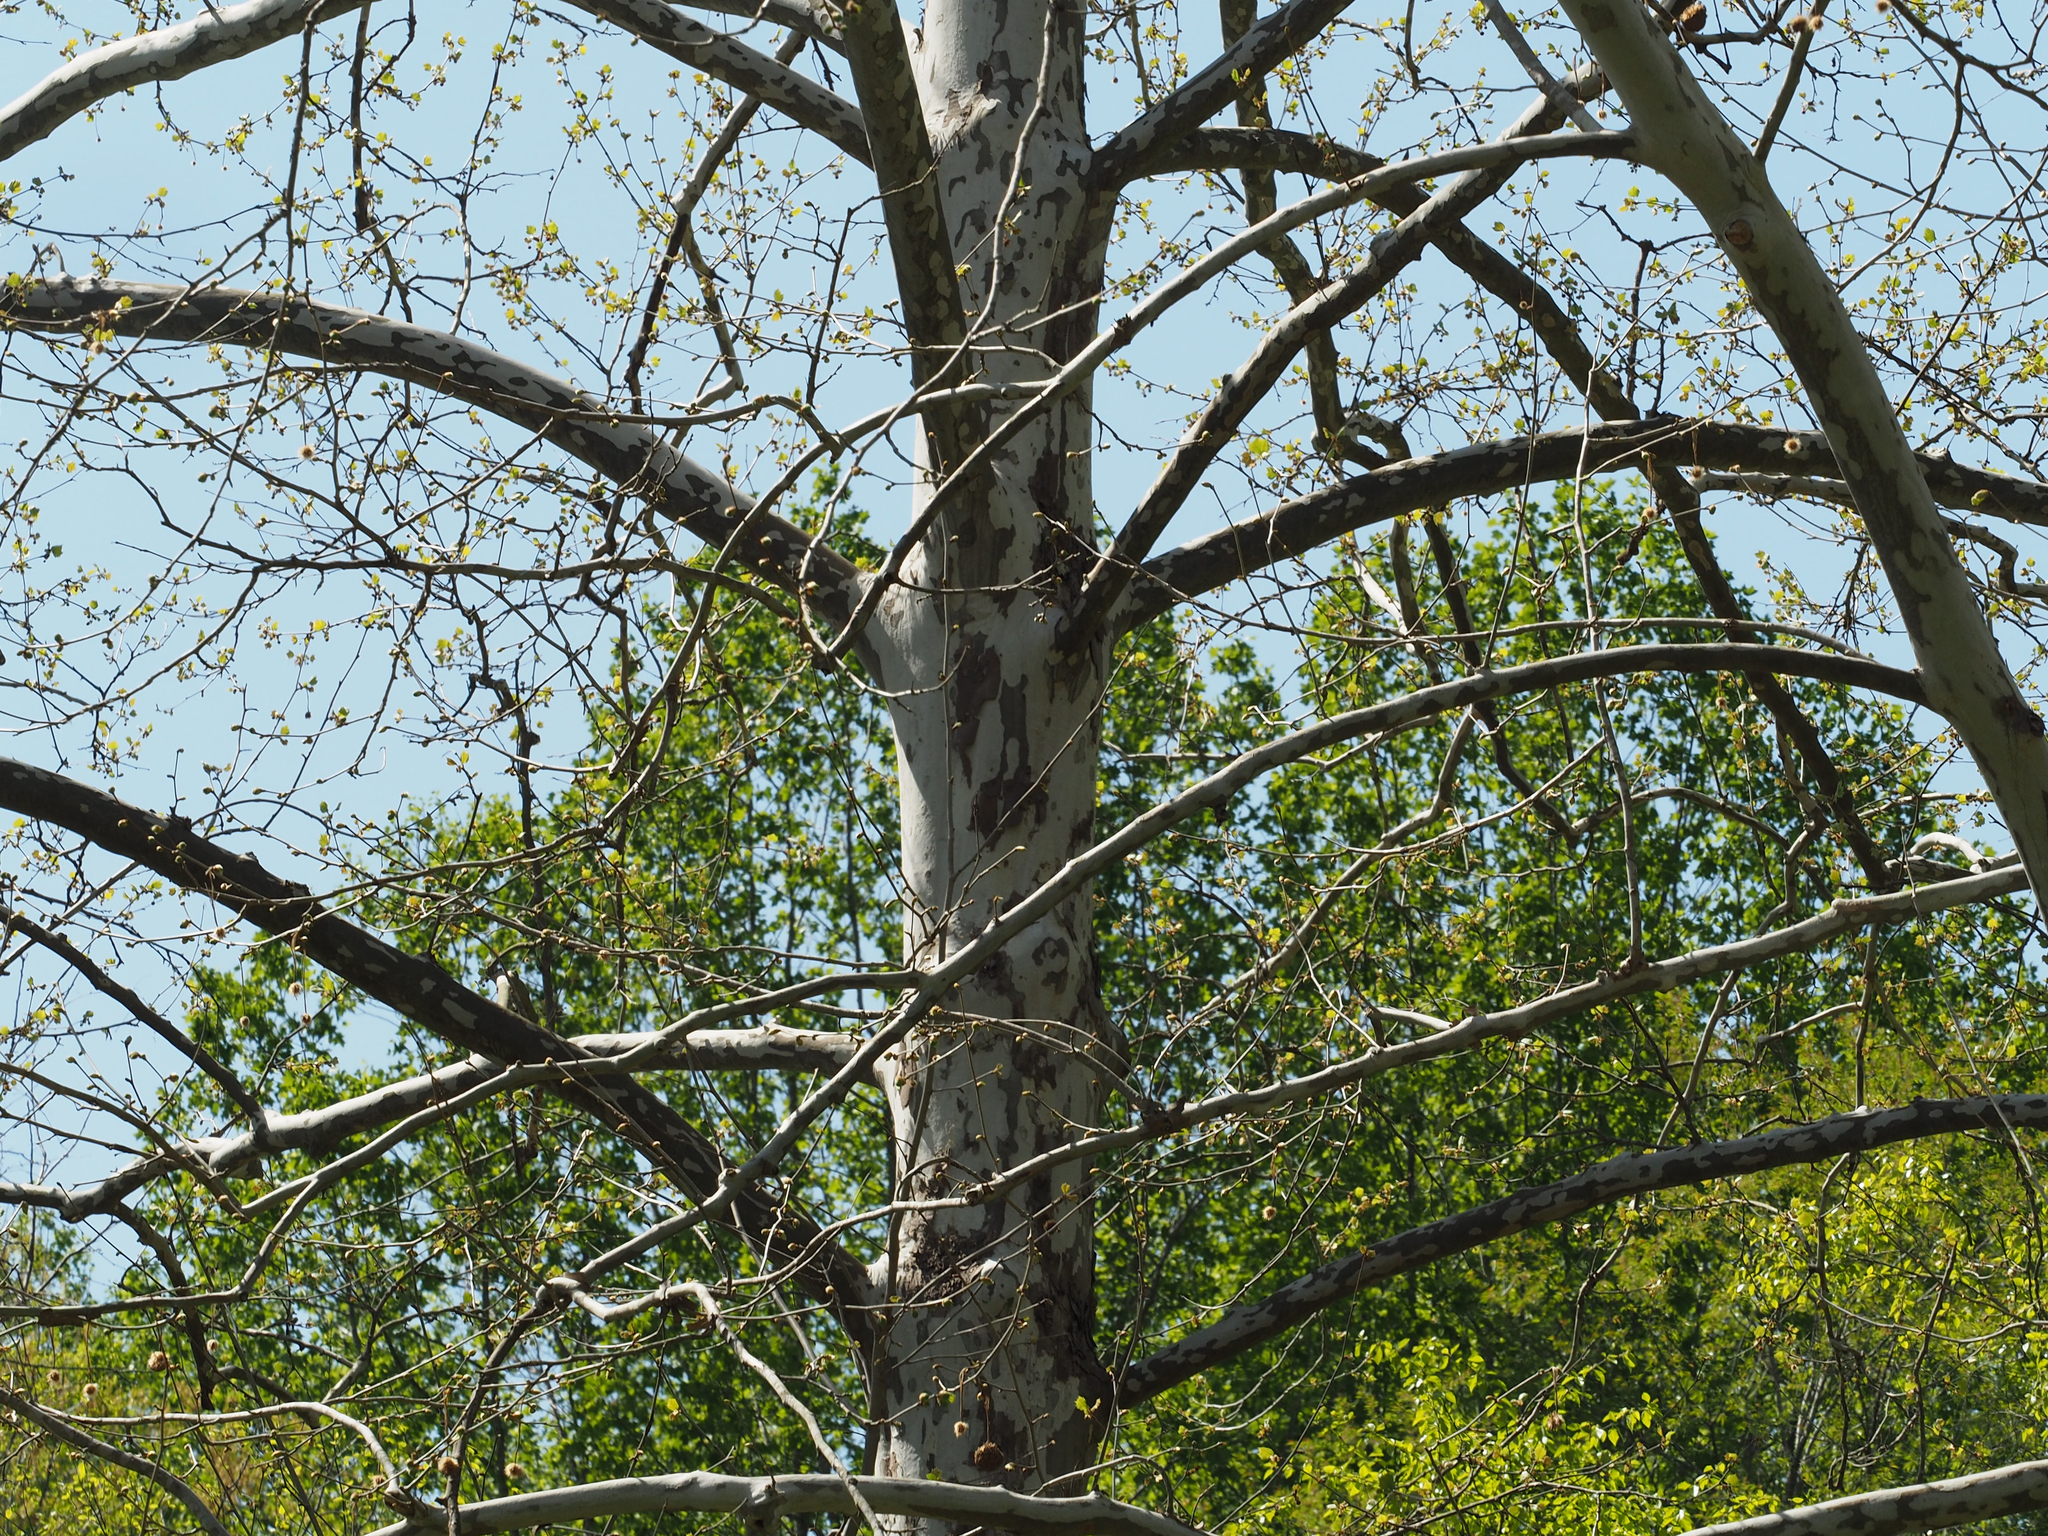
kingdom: Plantae
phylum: Tracheophyta
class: Magnoliopsida
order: Proteales
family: Platanaceae
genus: Platanus
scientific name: Platanus occidentalis
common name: American sycamore
